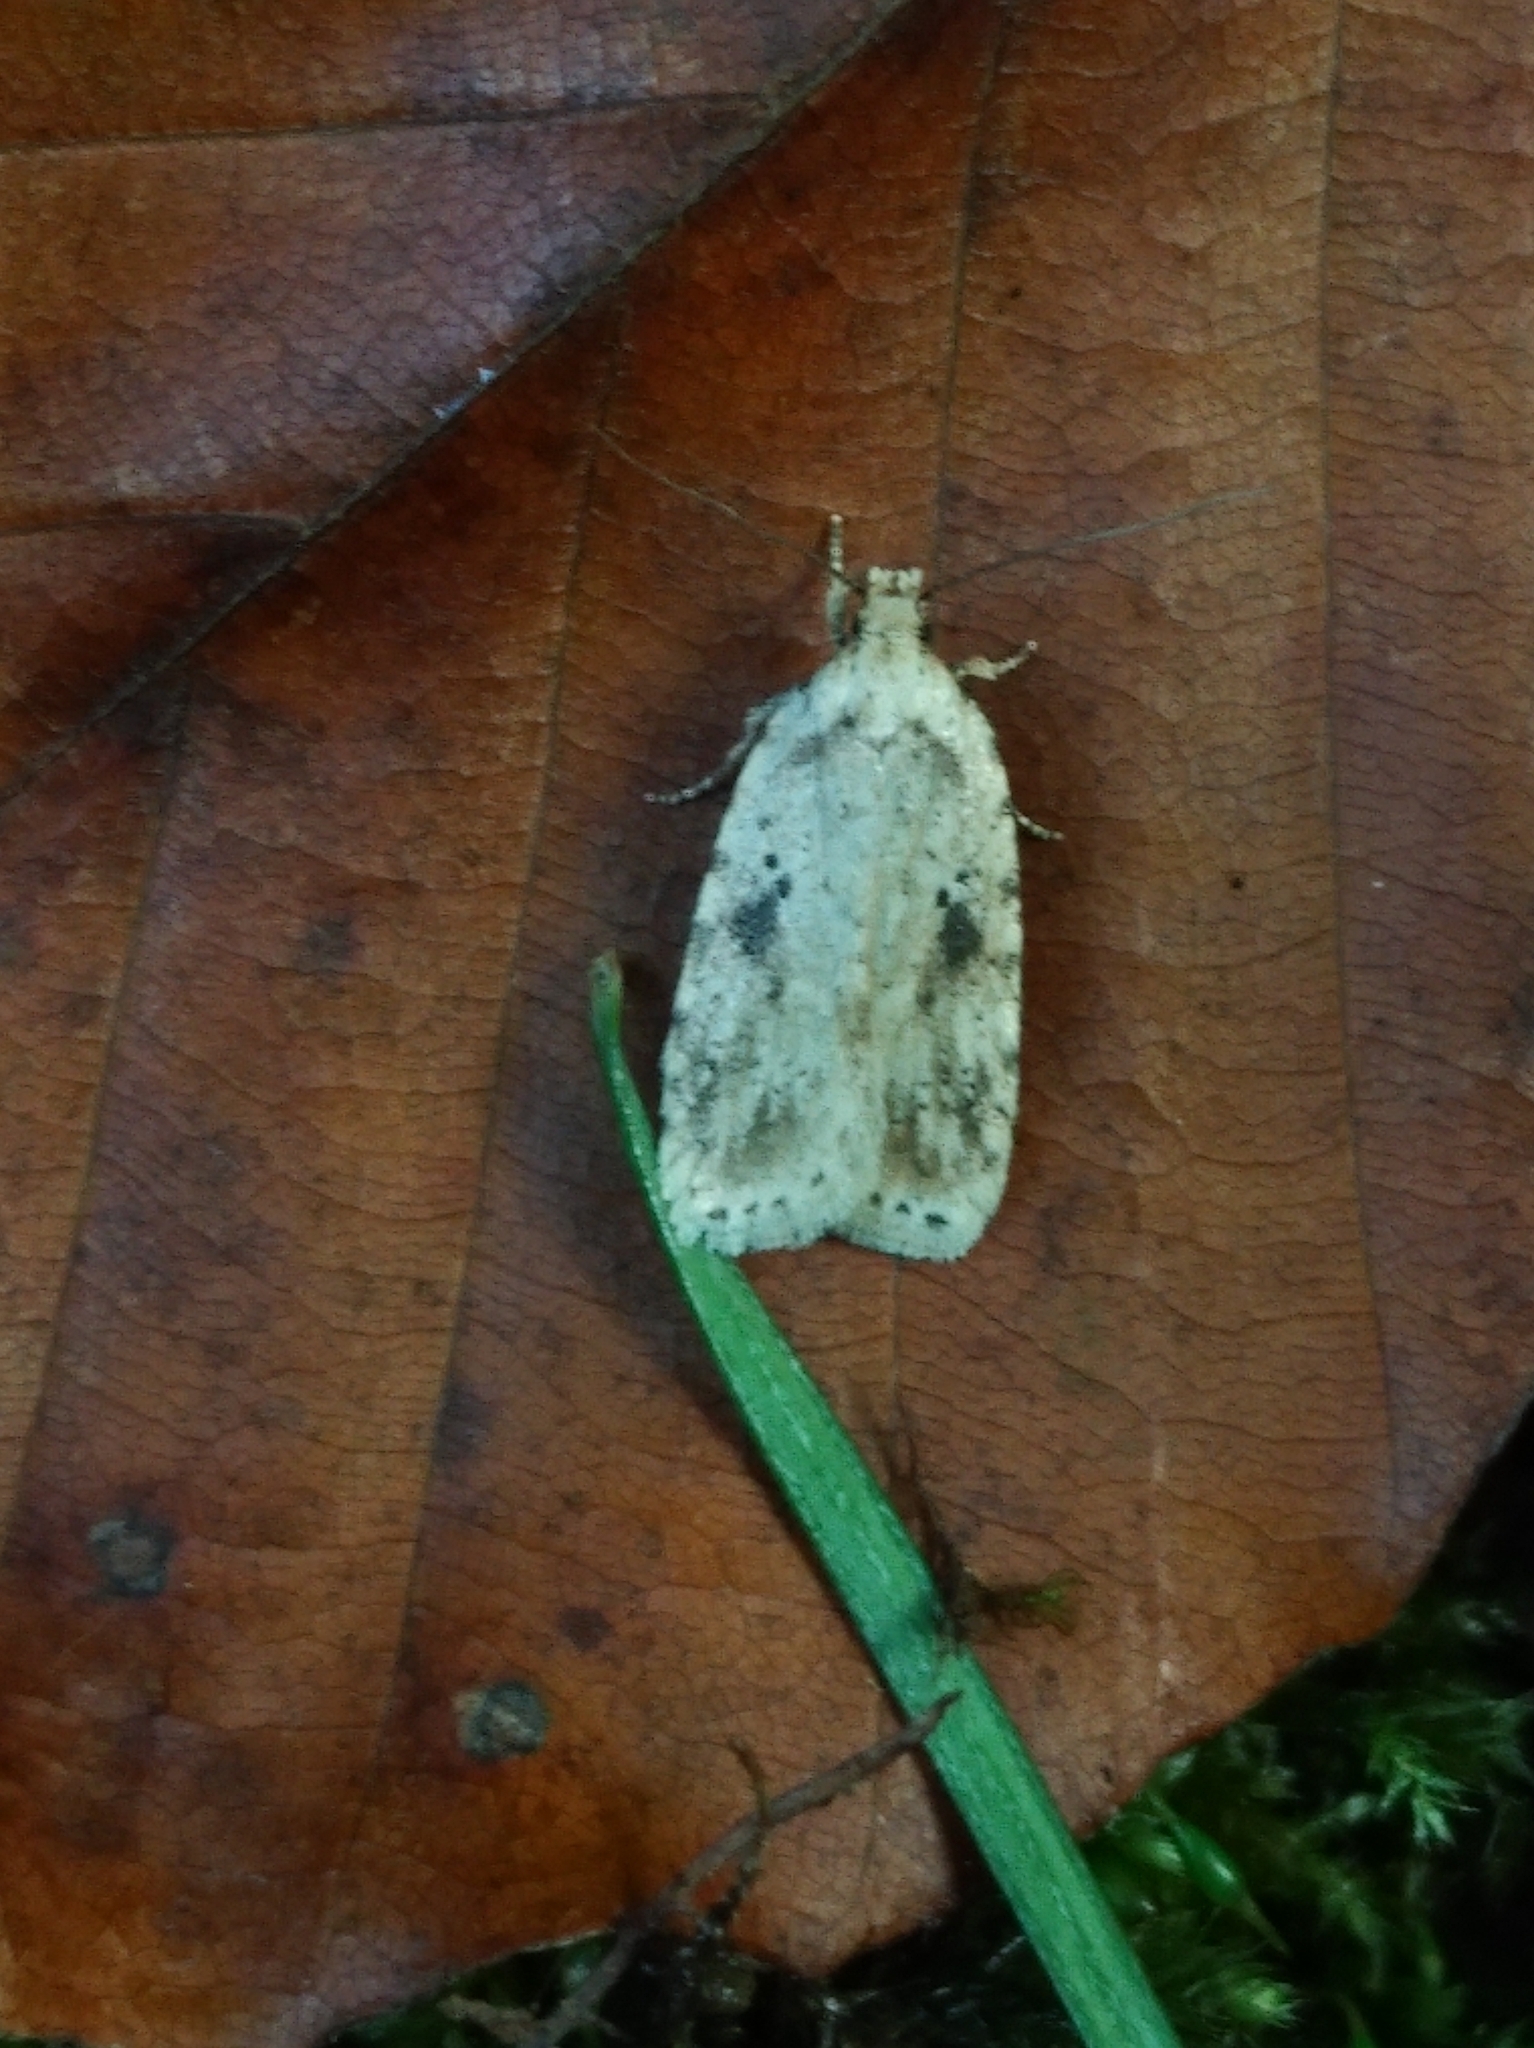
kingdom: Animalia
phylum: Arthropoda
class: Insecta
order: Lepidoptera
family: Depressariidae
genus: Agonopterix
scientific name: Agonopterix arenella
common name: Brindled flat-body
